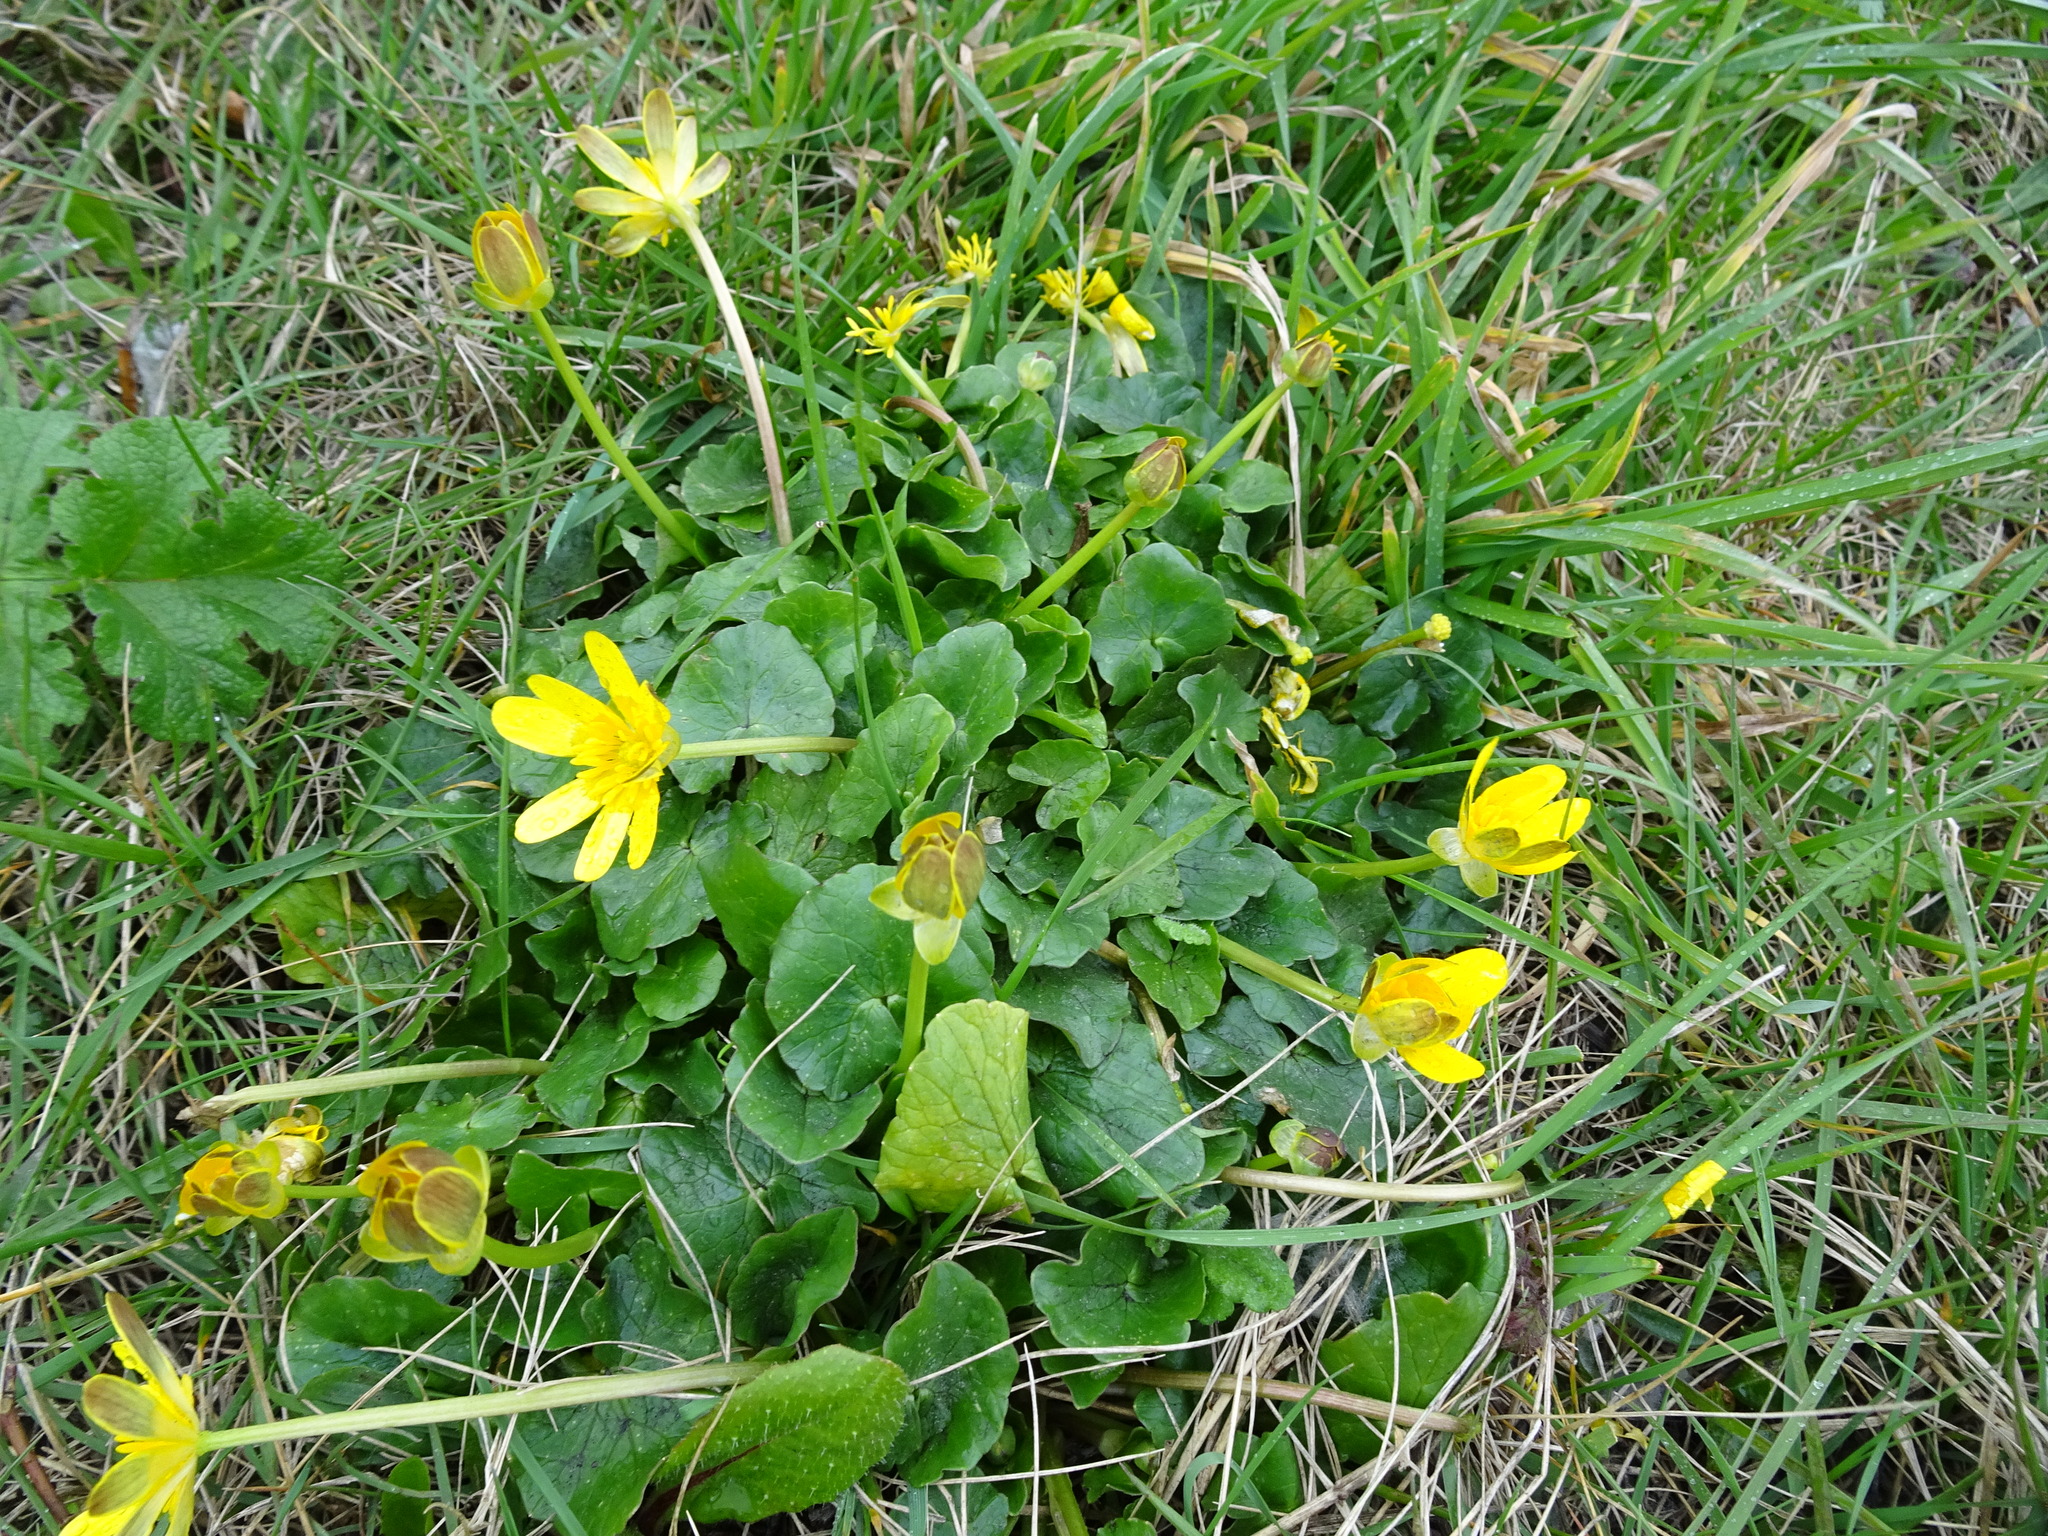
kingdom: Plantae
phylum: Tracheophyta
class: Magnoliopsida
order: Ranunculales
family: Ranunculaceae
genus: Ficaria
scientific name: Ficaria verna
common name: Lesser celandine
